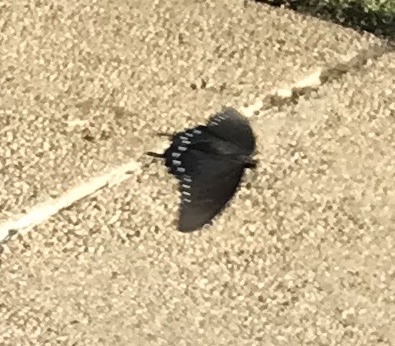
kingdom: Animalia
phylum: Arthropoda
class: Insecta
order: Lepidoptera
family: Papilionidae
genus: Battus
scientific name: Battus philenor
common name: Pipevine swallowtail
